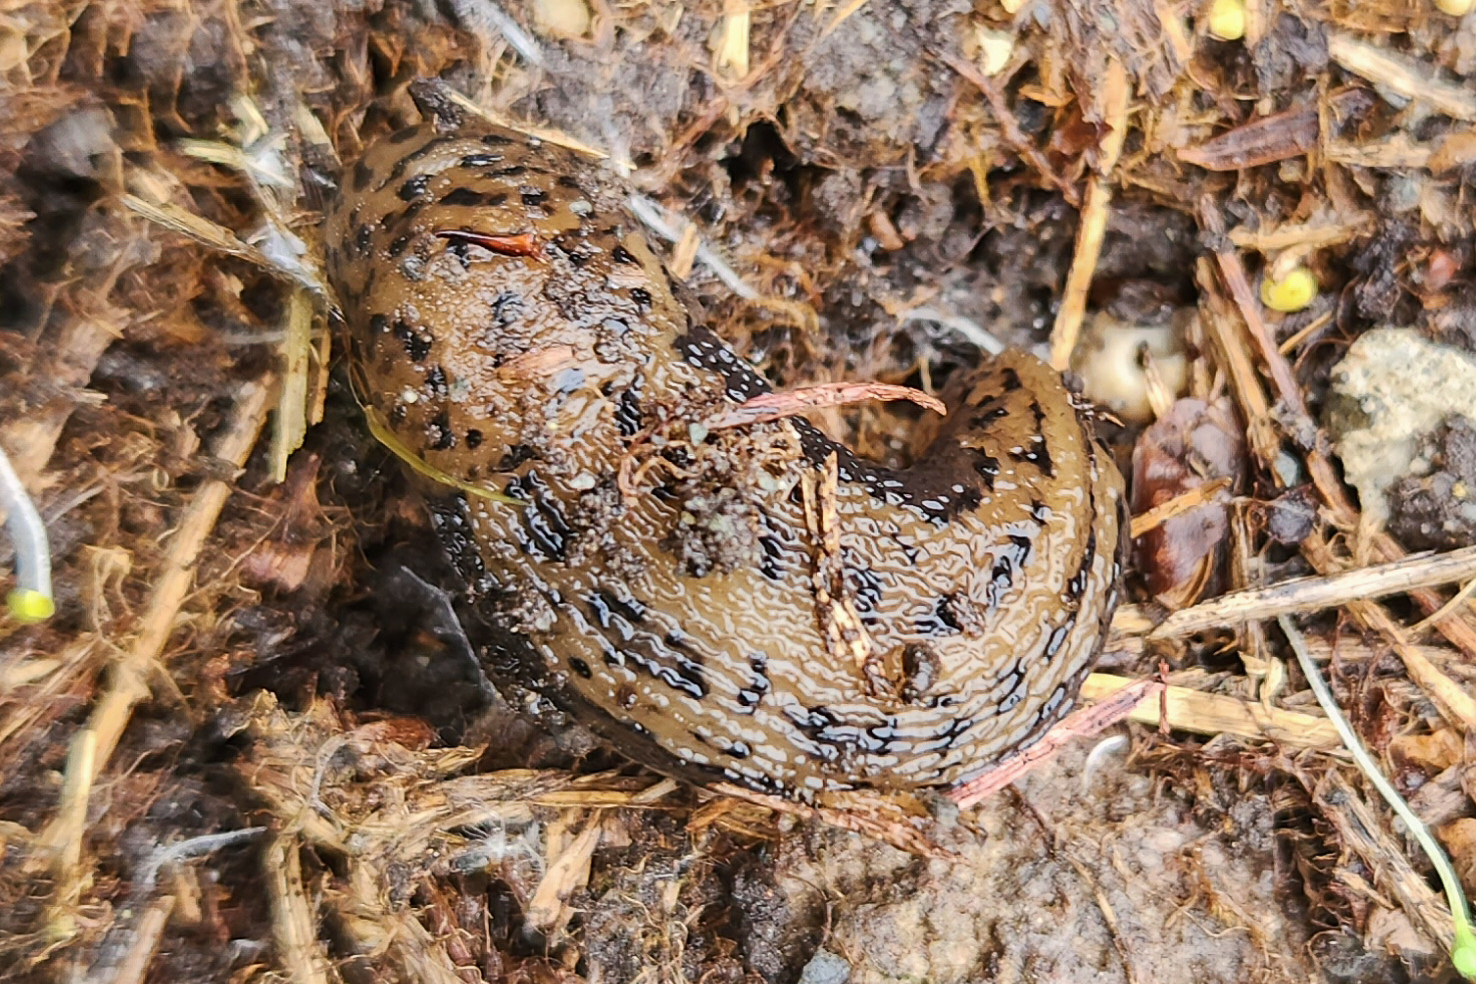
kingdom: Animalia
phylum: Mollusca
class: Gastropoda
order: Stylommatophora
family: Limacidae
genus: Limax
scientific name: Limax maximus
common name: Great grey slug
